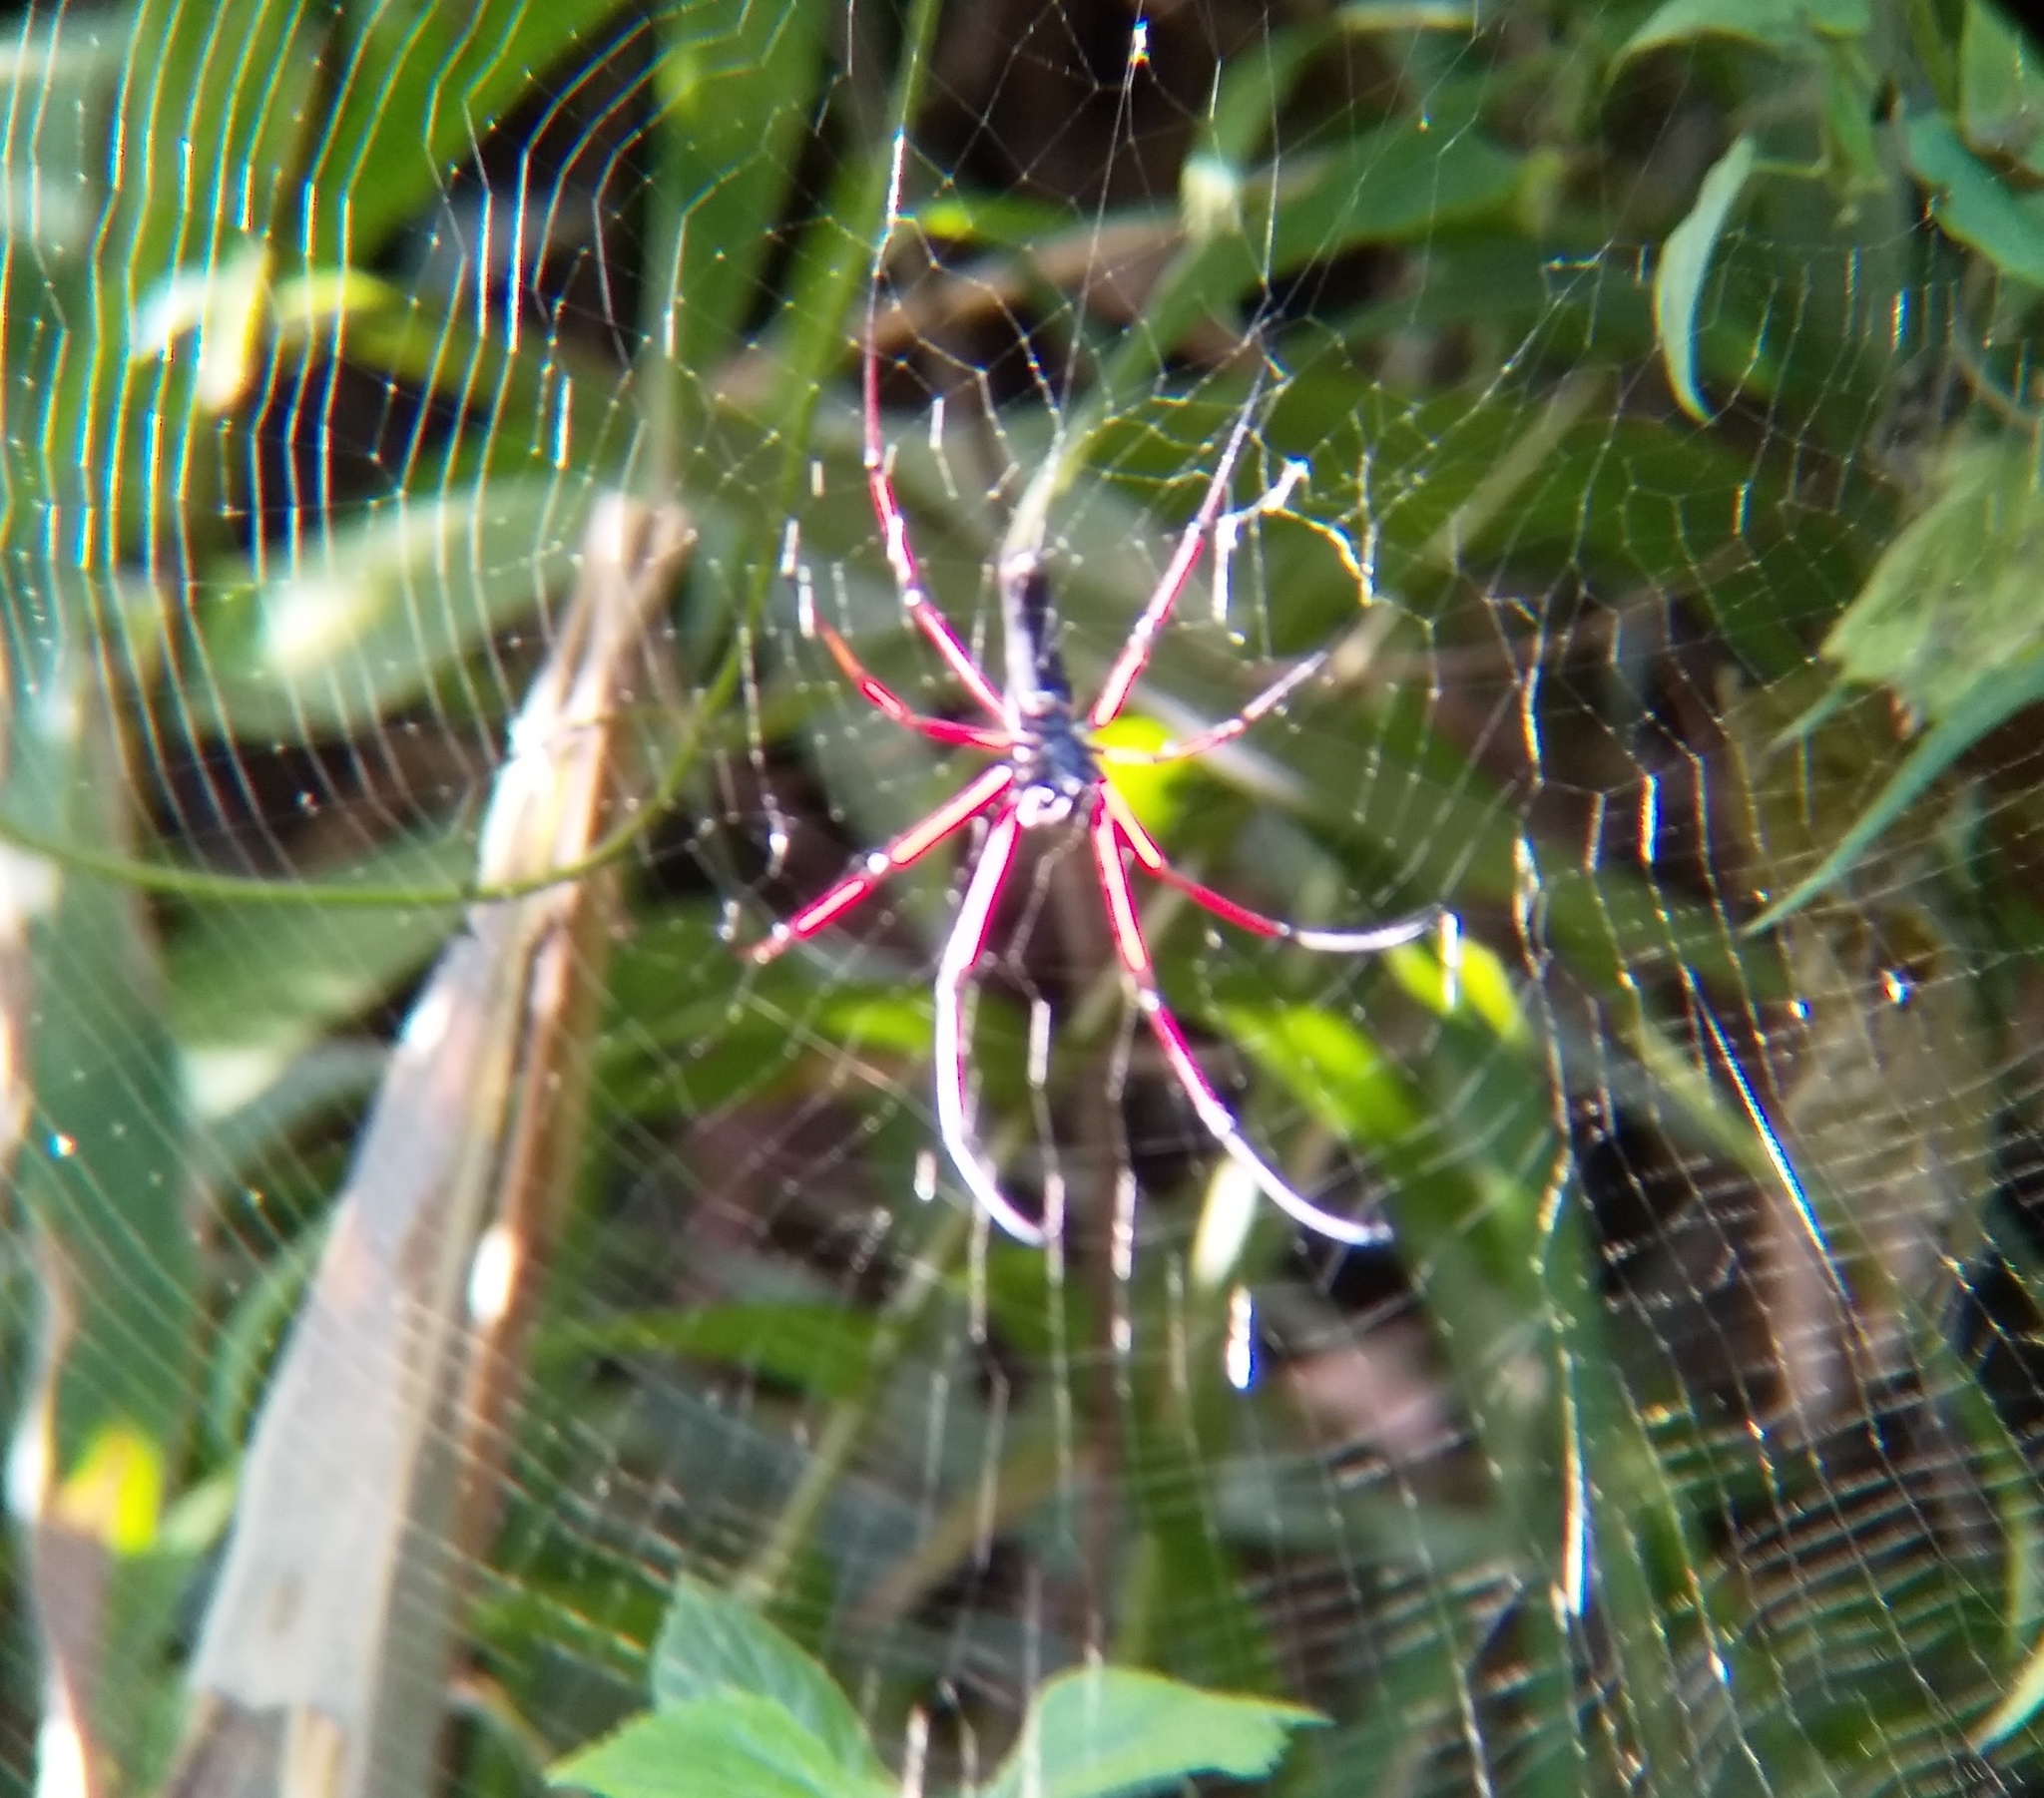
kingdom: Animalia
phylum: Arthropoda
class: Arachnida
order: Araneae
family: Araneidae
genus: Nephila
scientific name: Nephila kuhli
